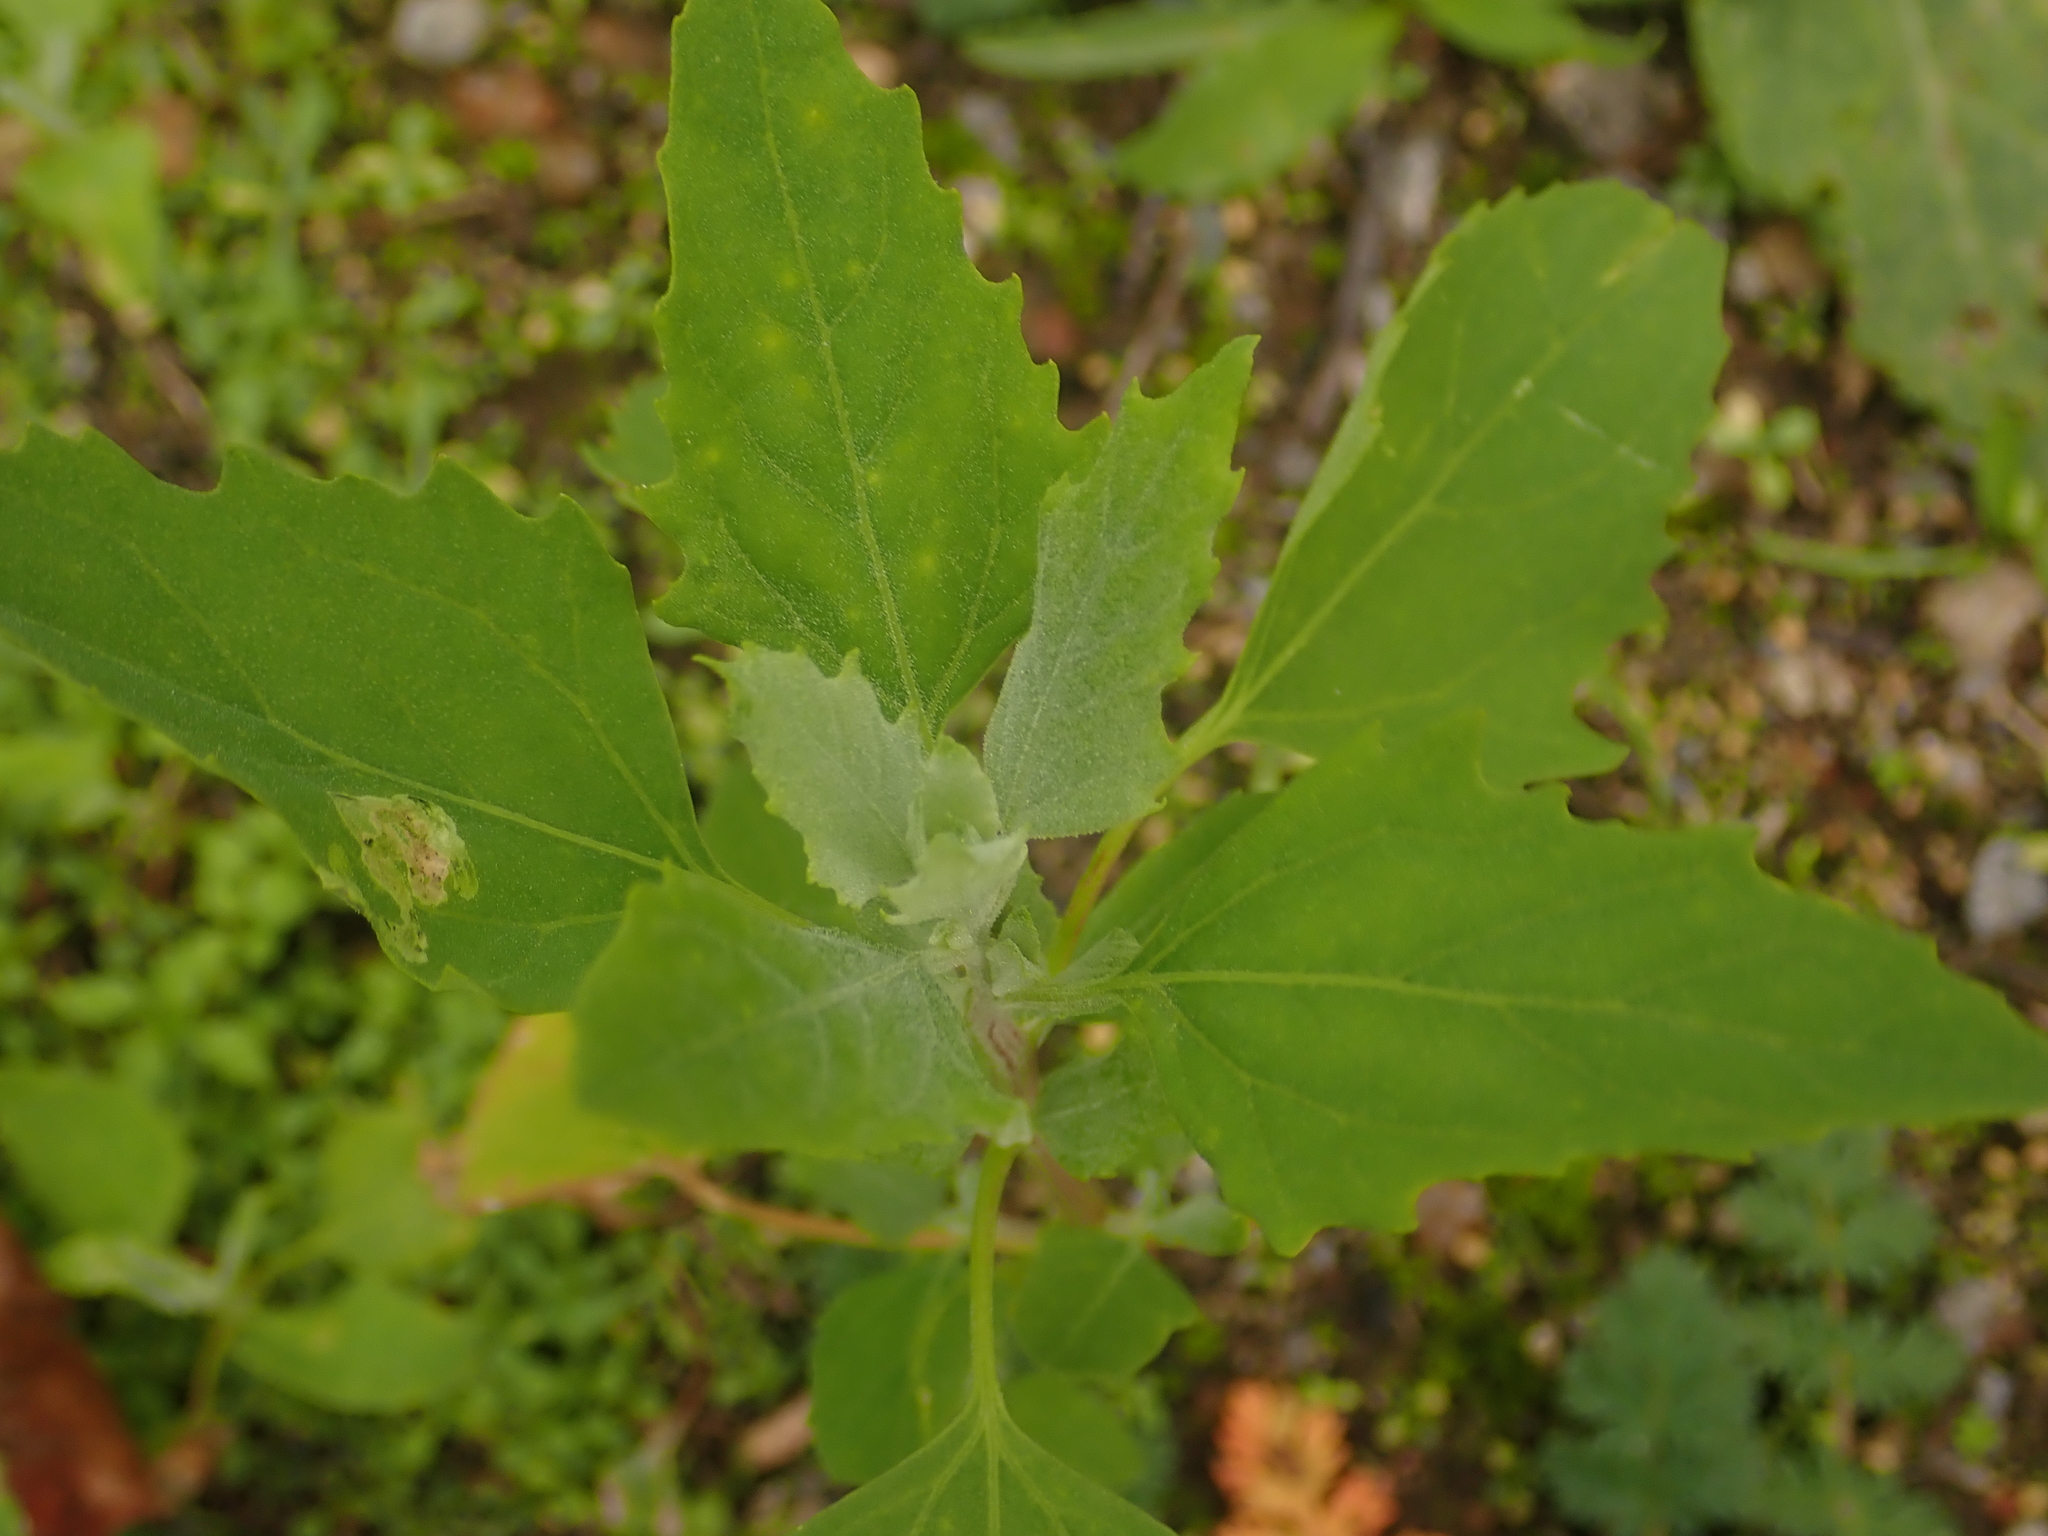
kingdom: Plantae
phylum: Tracheophyta
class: Magnoliopsida
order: Caryophyllales
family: Amaranthaceae
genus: Chenopodium
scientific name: Chenopodium album
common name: Fat-hen
